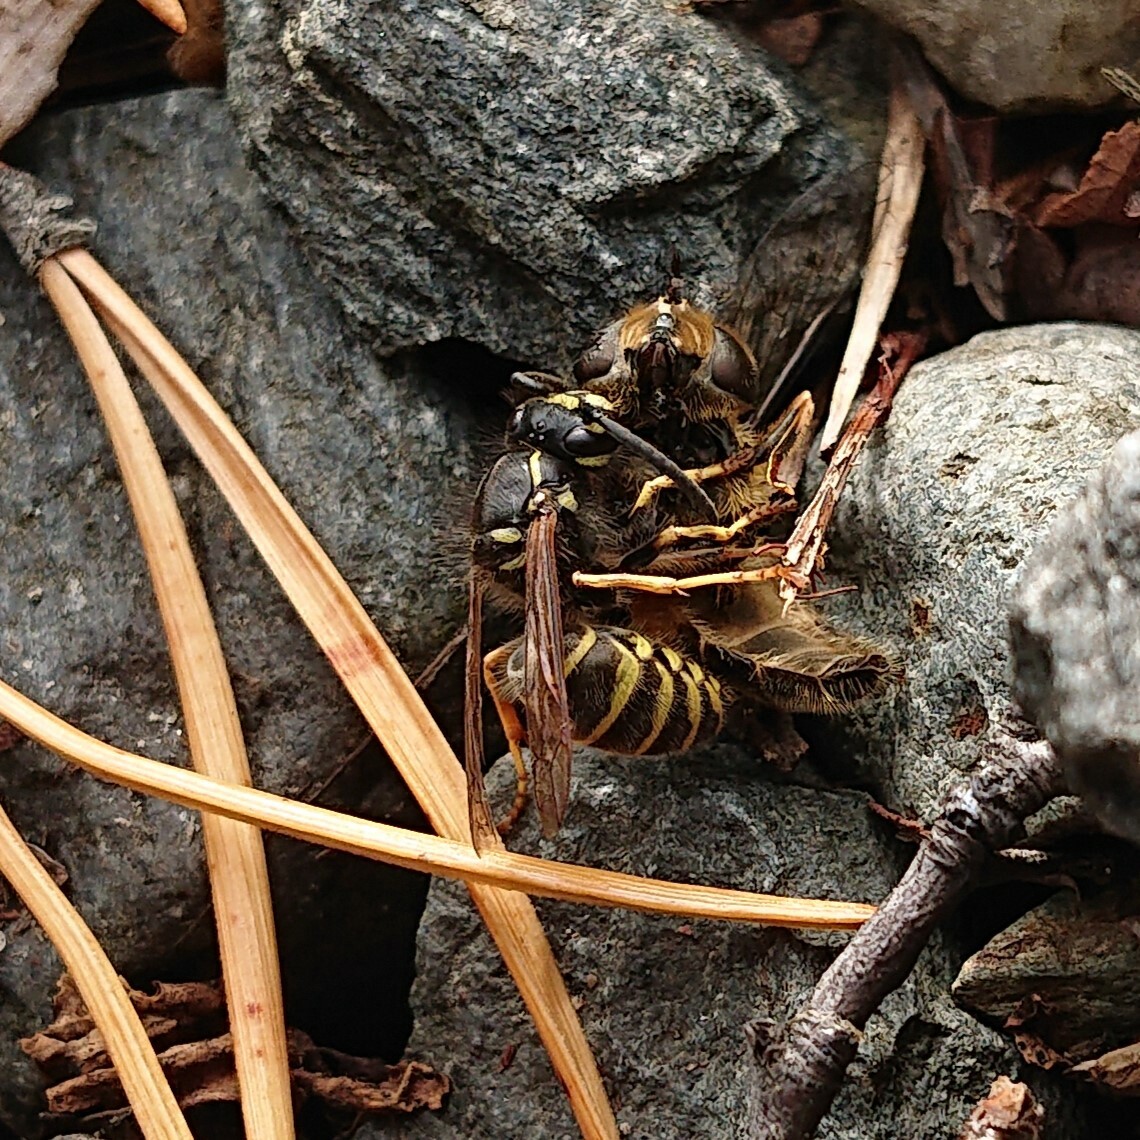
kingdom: Animalia
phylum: Arthropoda
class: Insecta
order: Hymenoptera
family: Vespidae
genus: Vespula
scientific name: Vespula vulgaris
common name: Common wasp
